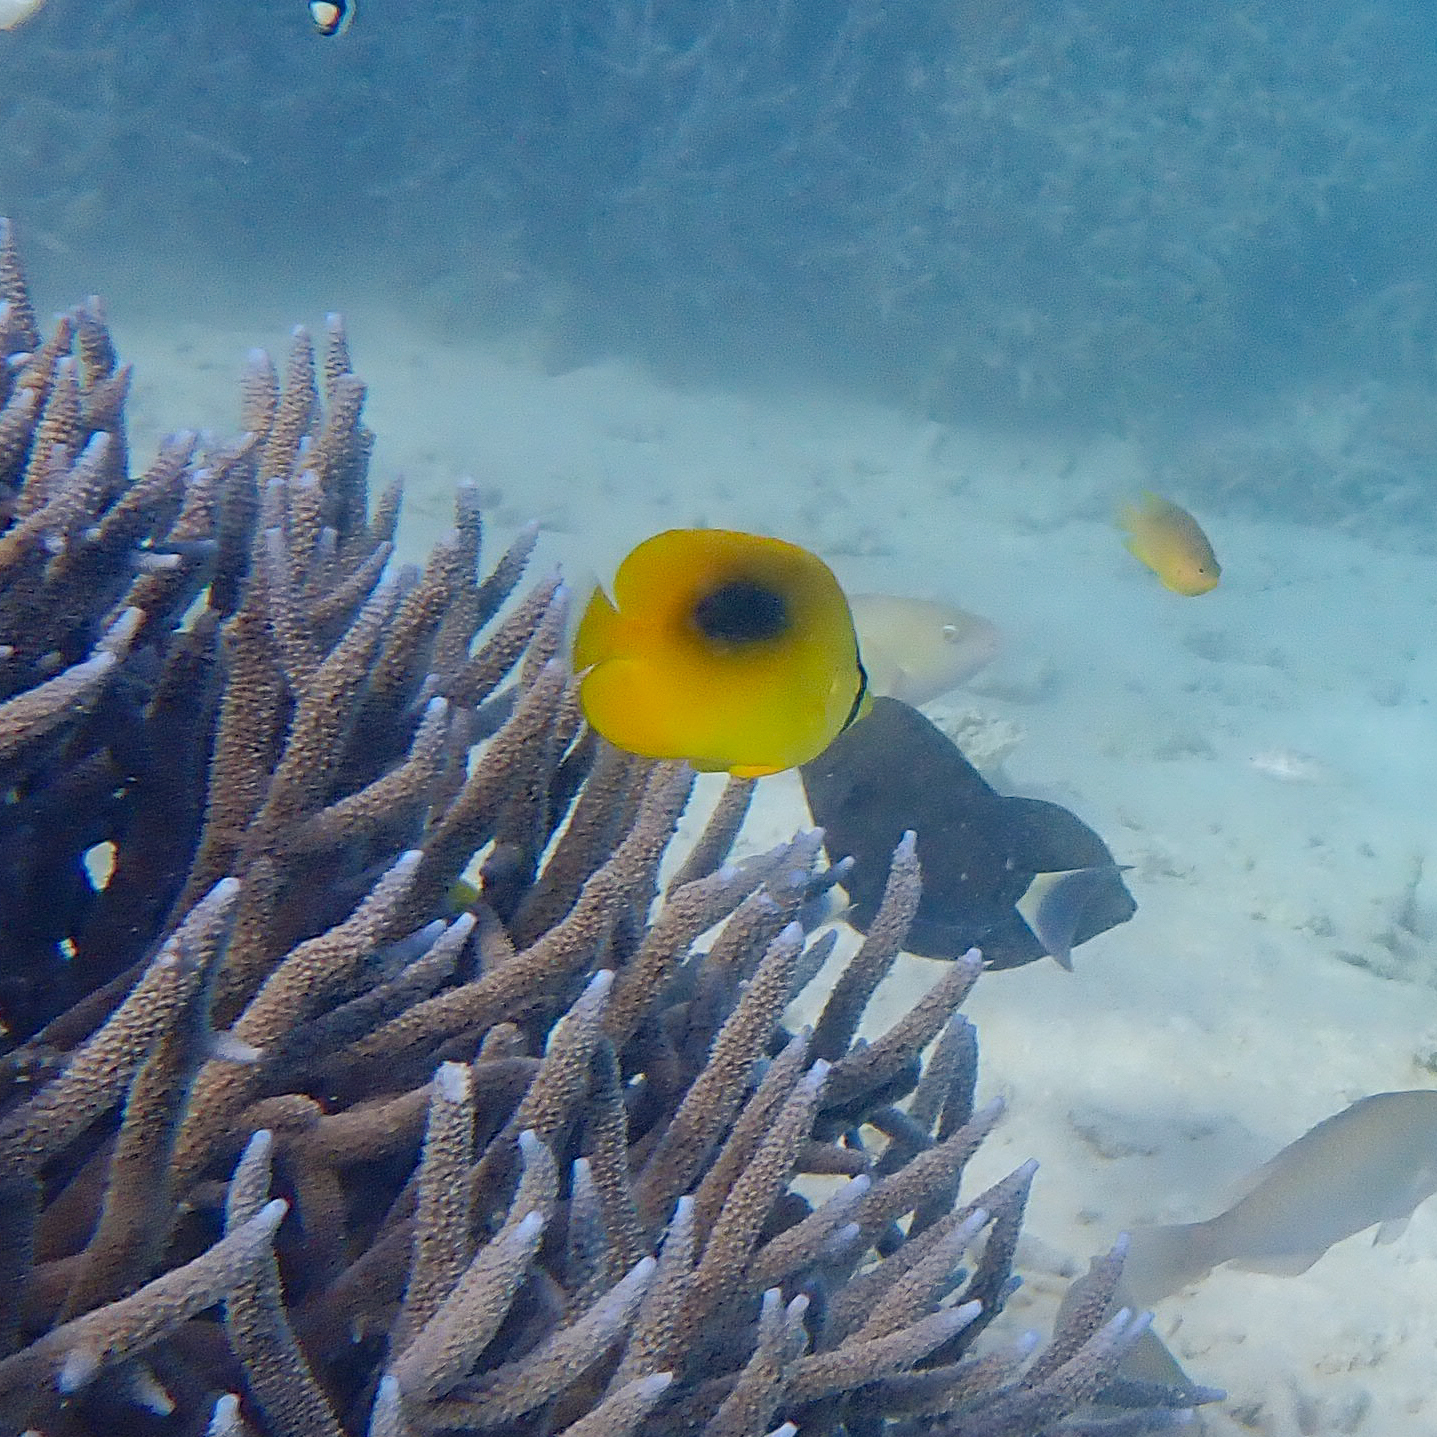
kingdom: Animalia
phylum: Chordata
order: Perciformes
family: Chaetodontidae
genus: Chaetodon
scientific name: Chaetodon speculum
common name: Mirror butterflyfish
